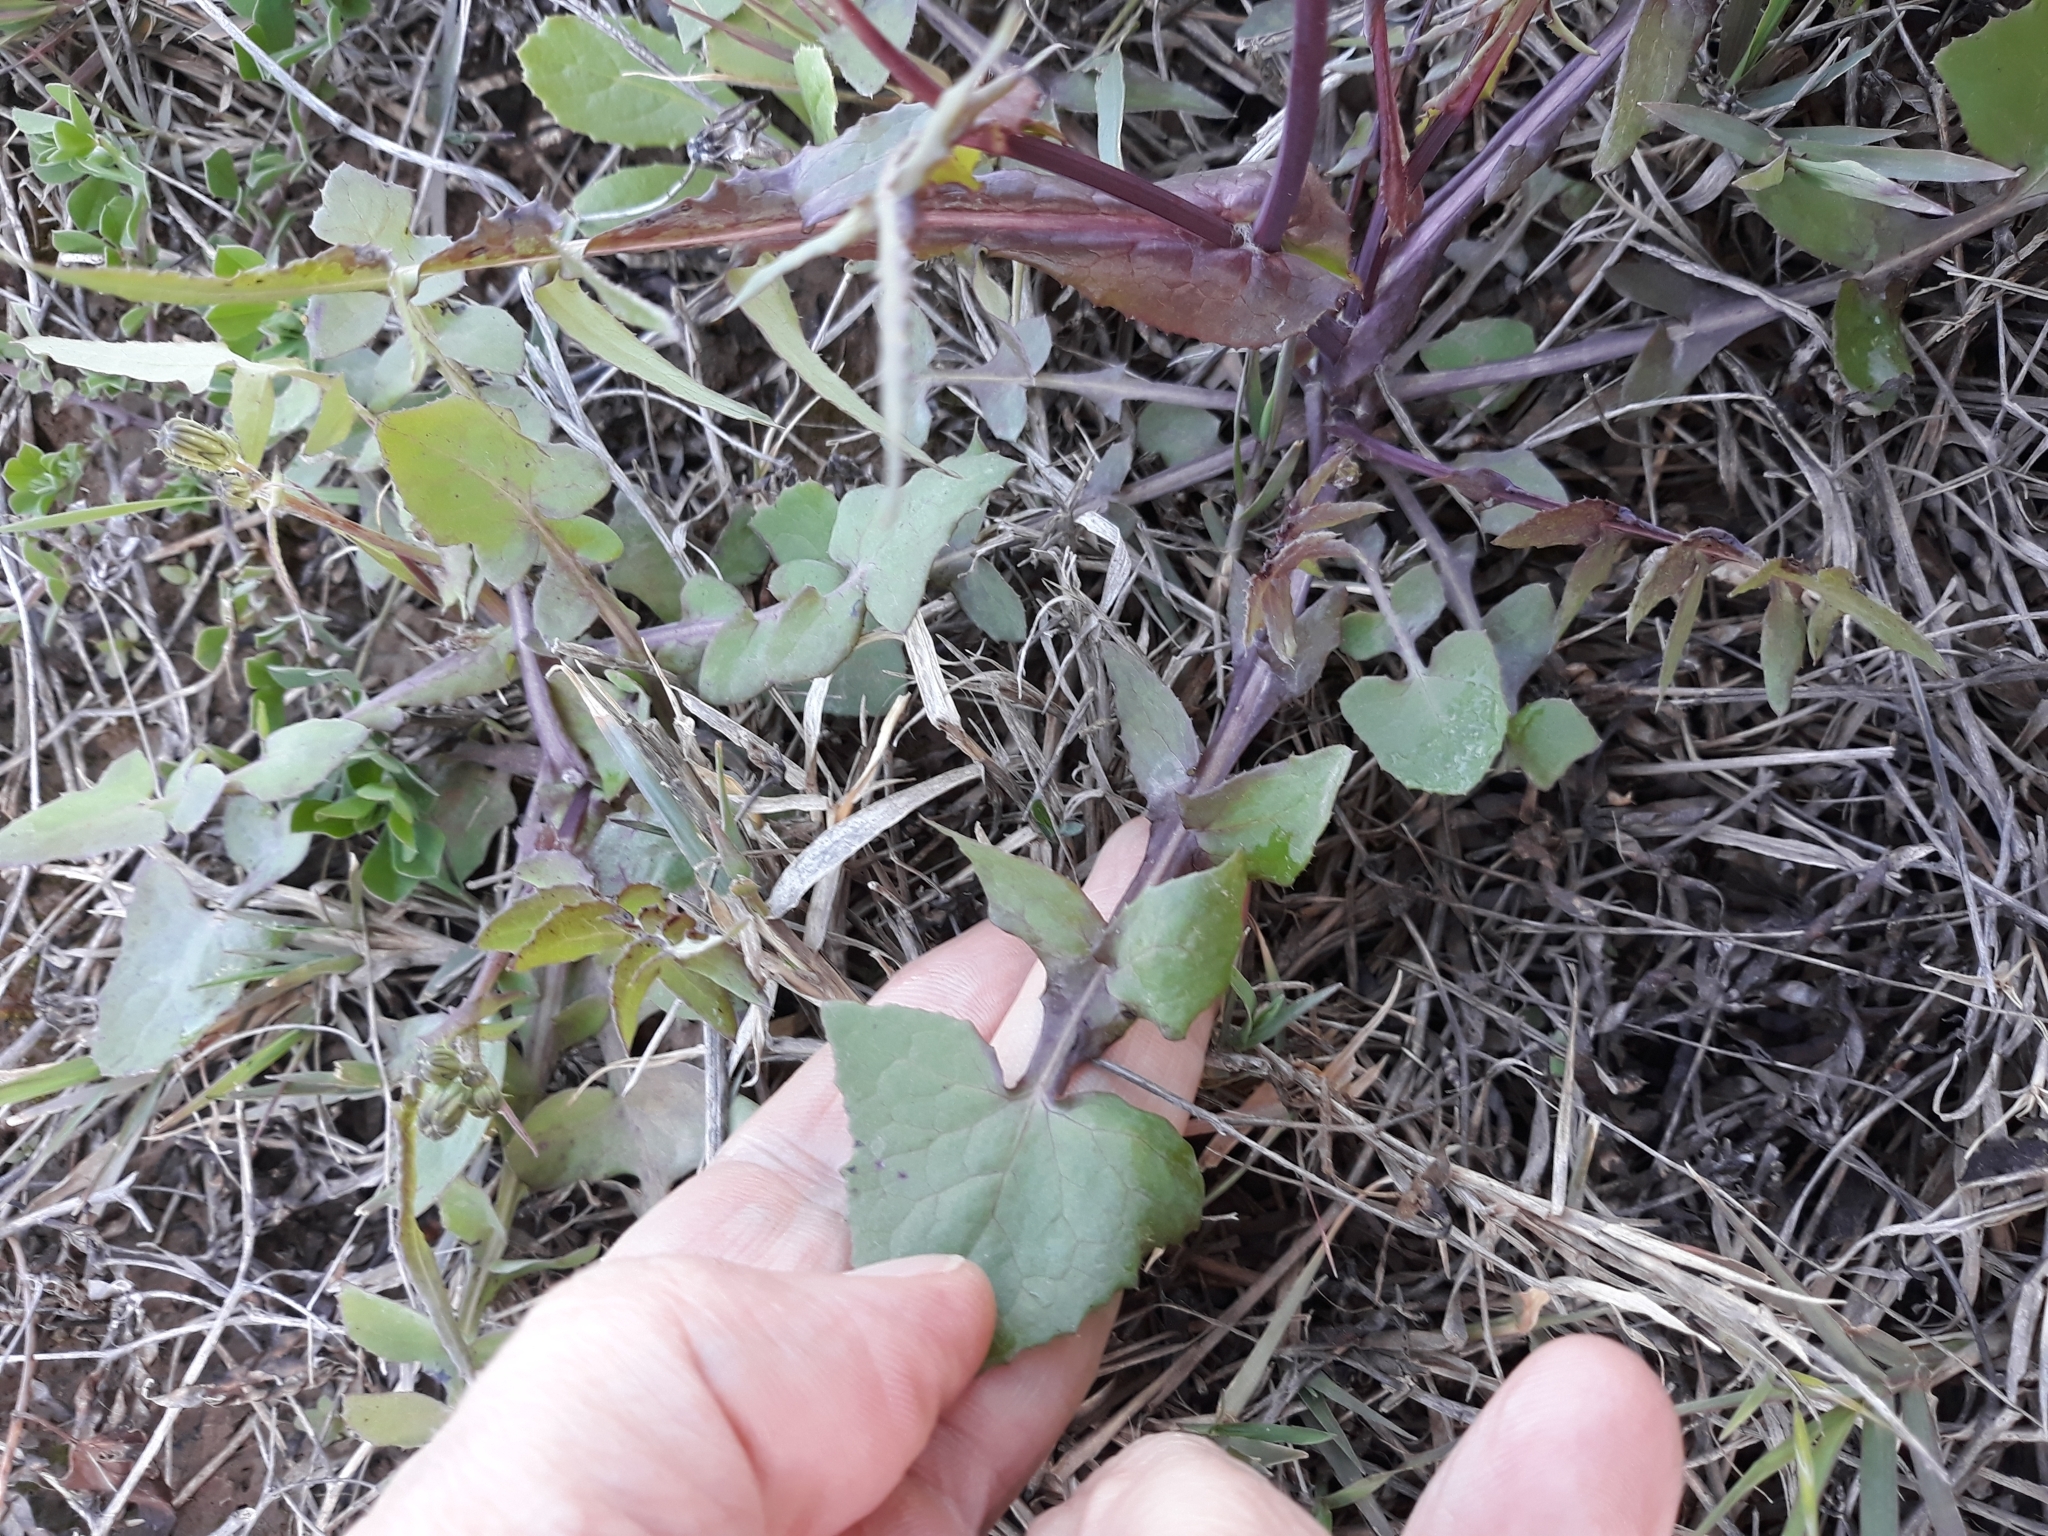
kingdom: Plantae
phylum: Tracheophyta
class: Magnoliopsida
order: Asterales
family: Asteraceae
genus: Sonchus
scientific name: Sonchus oleraceus
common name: Common sowthistle
